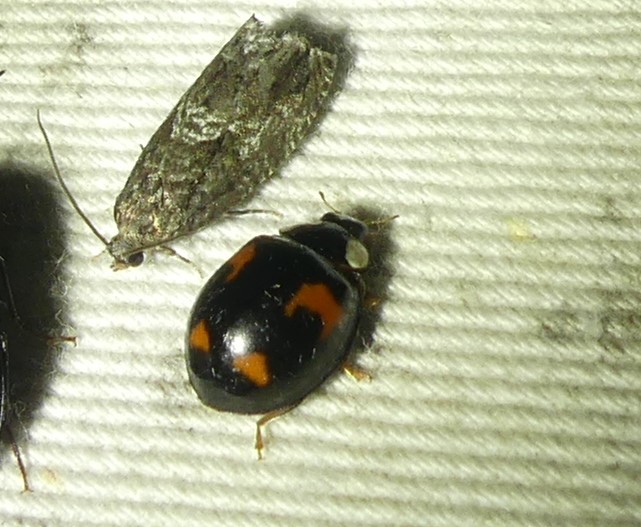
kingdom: Animalia
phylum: Arthropoda
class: Insecta
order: Coleoptera
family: Coccinellidae
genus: Harmonia
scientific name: Harmonia axyridis
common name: Harlequin ladybird
